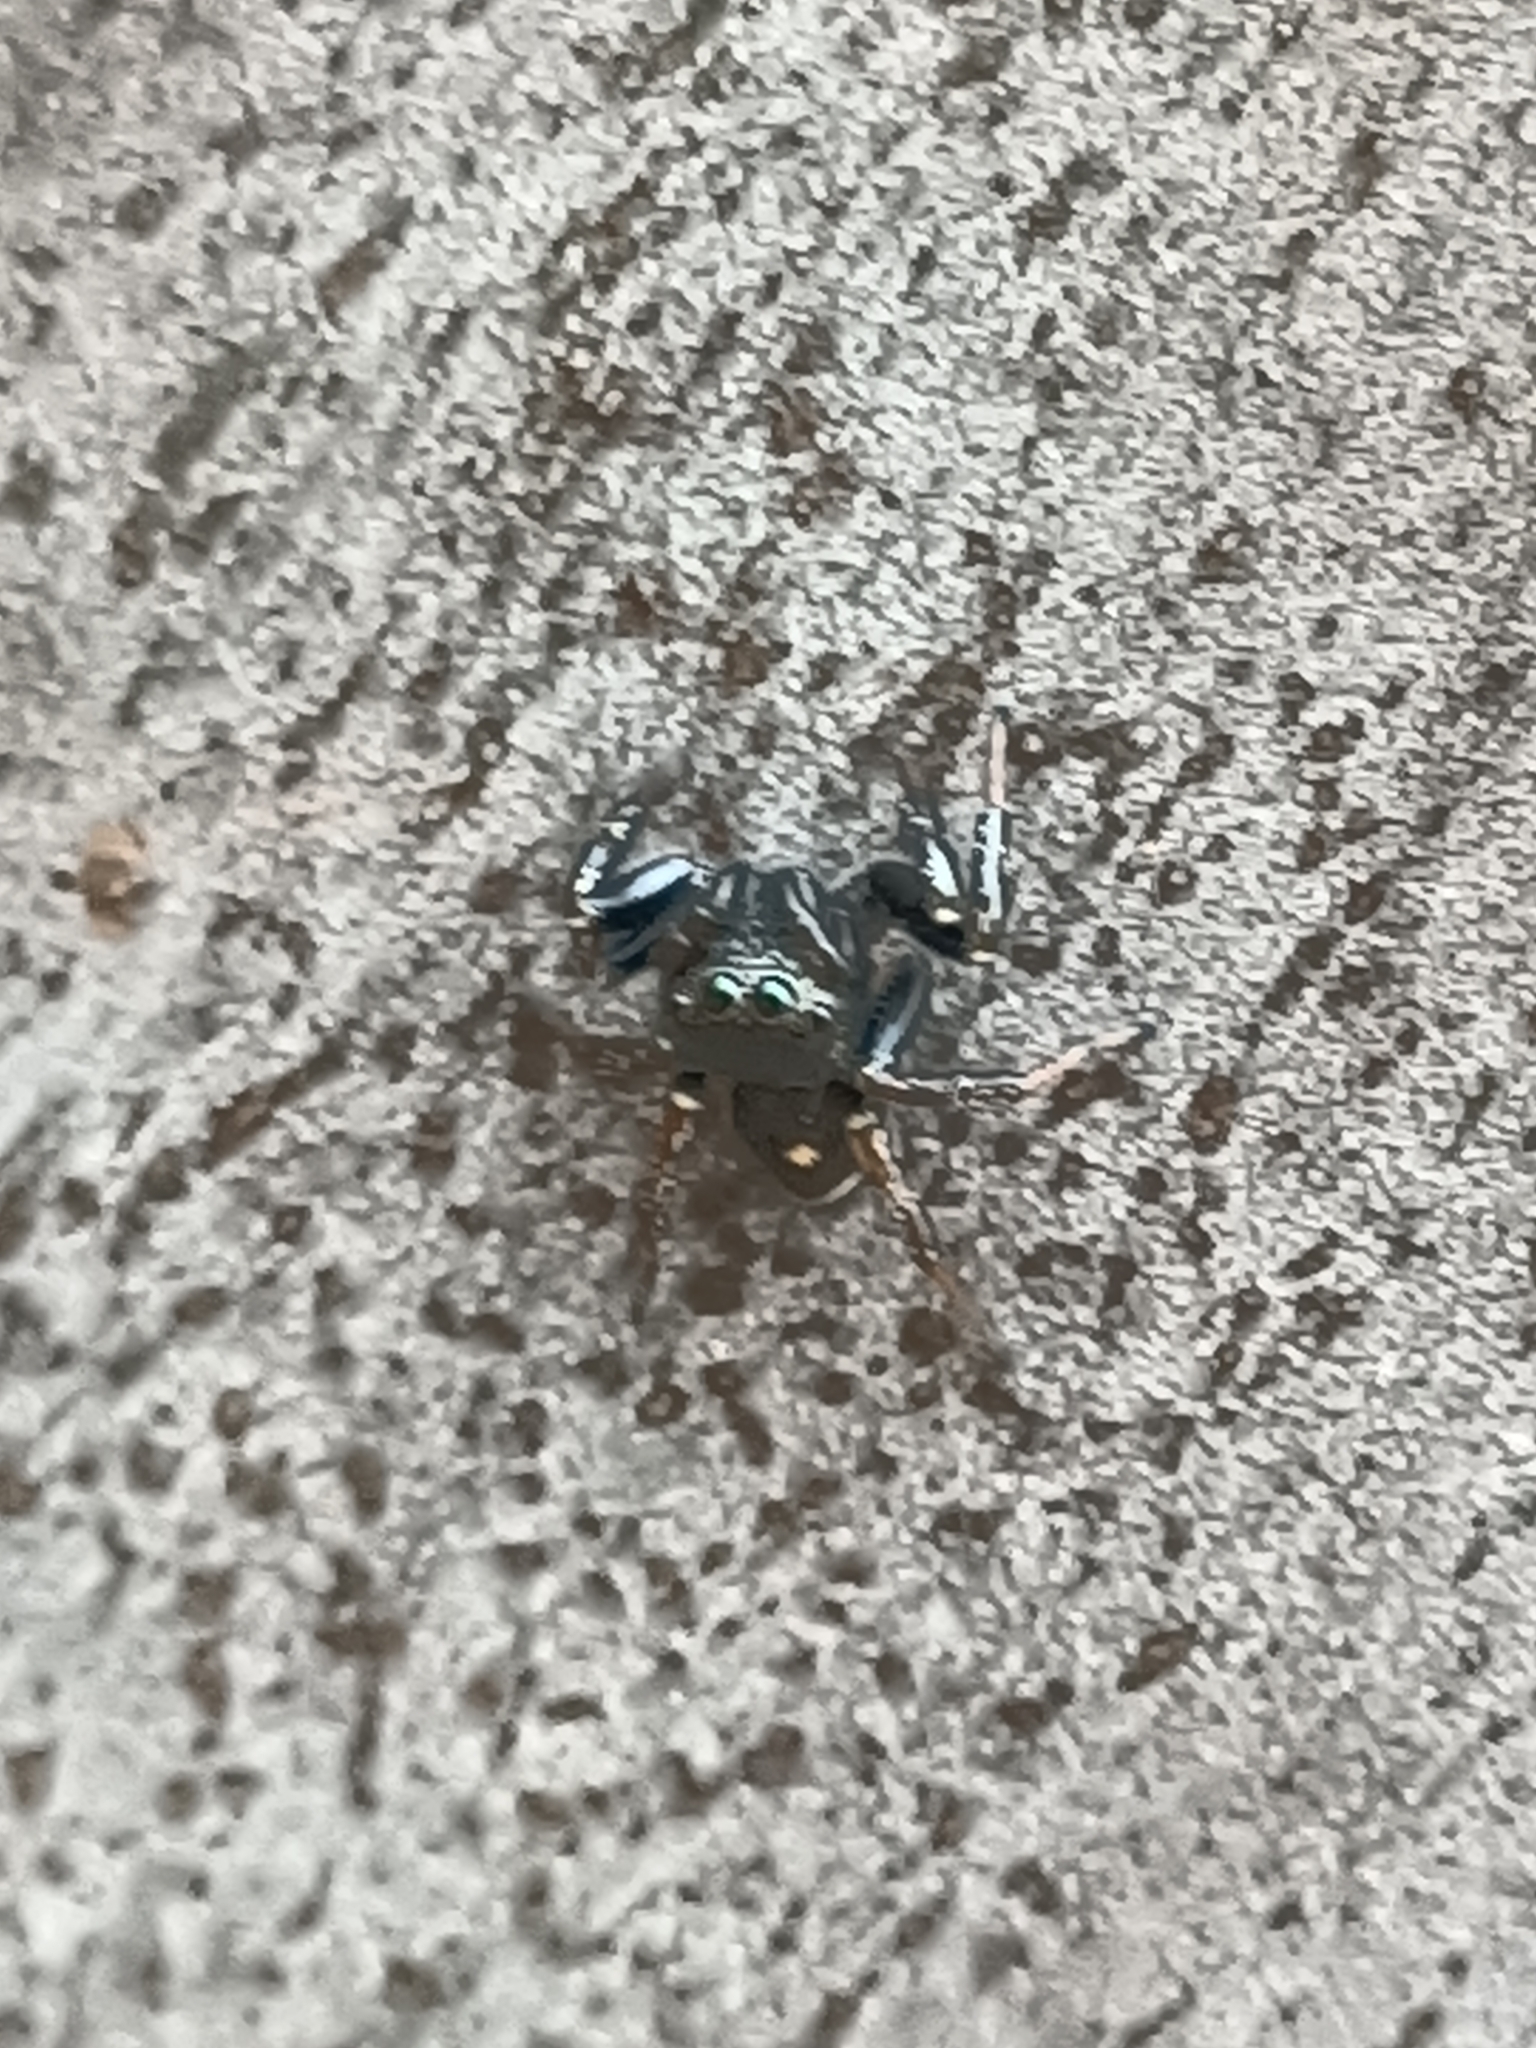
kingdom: Animalia
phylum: Arthropoda
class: Arachnida
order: Araneae
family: Salticidae
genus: Zenodorus
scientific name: Zenodorus orbiculatus
